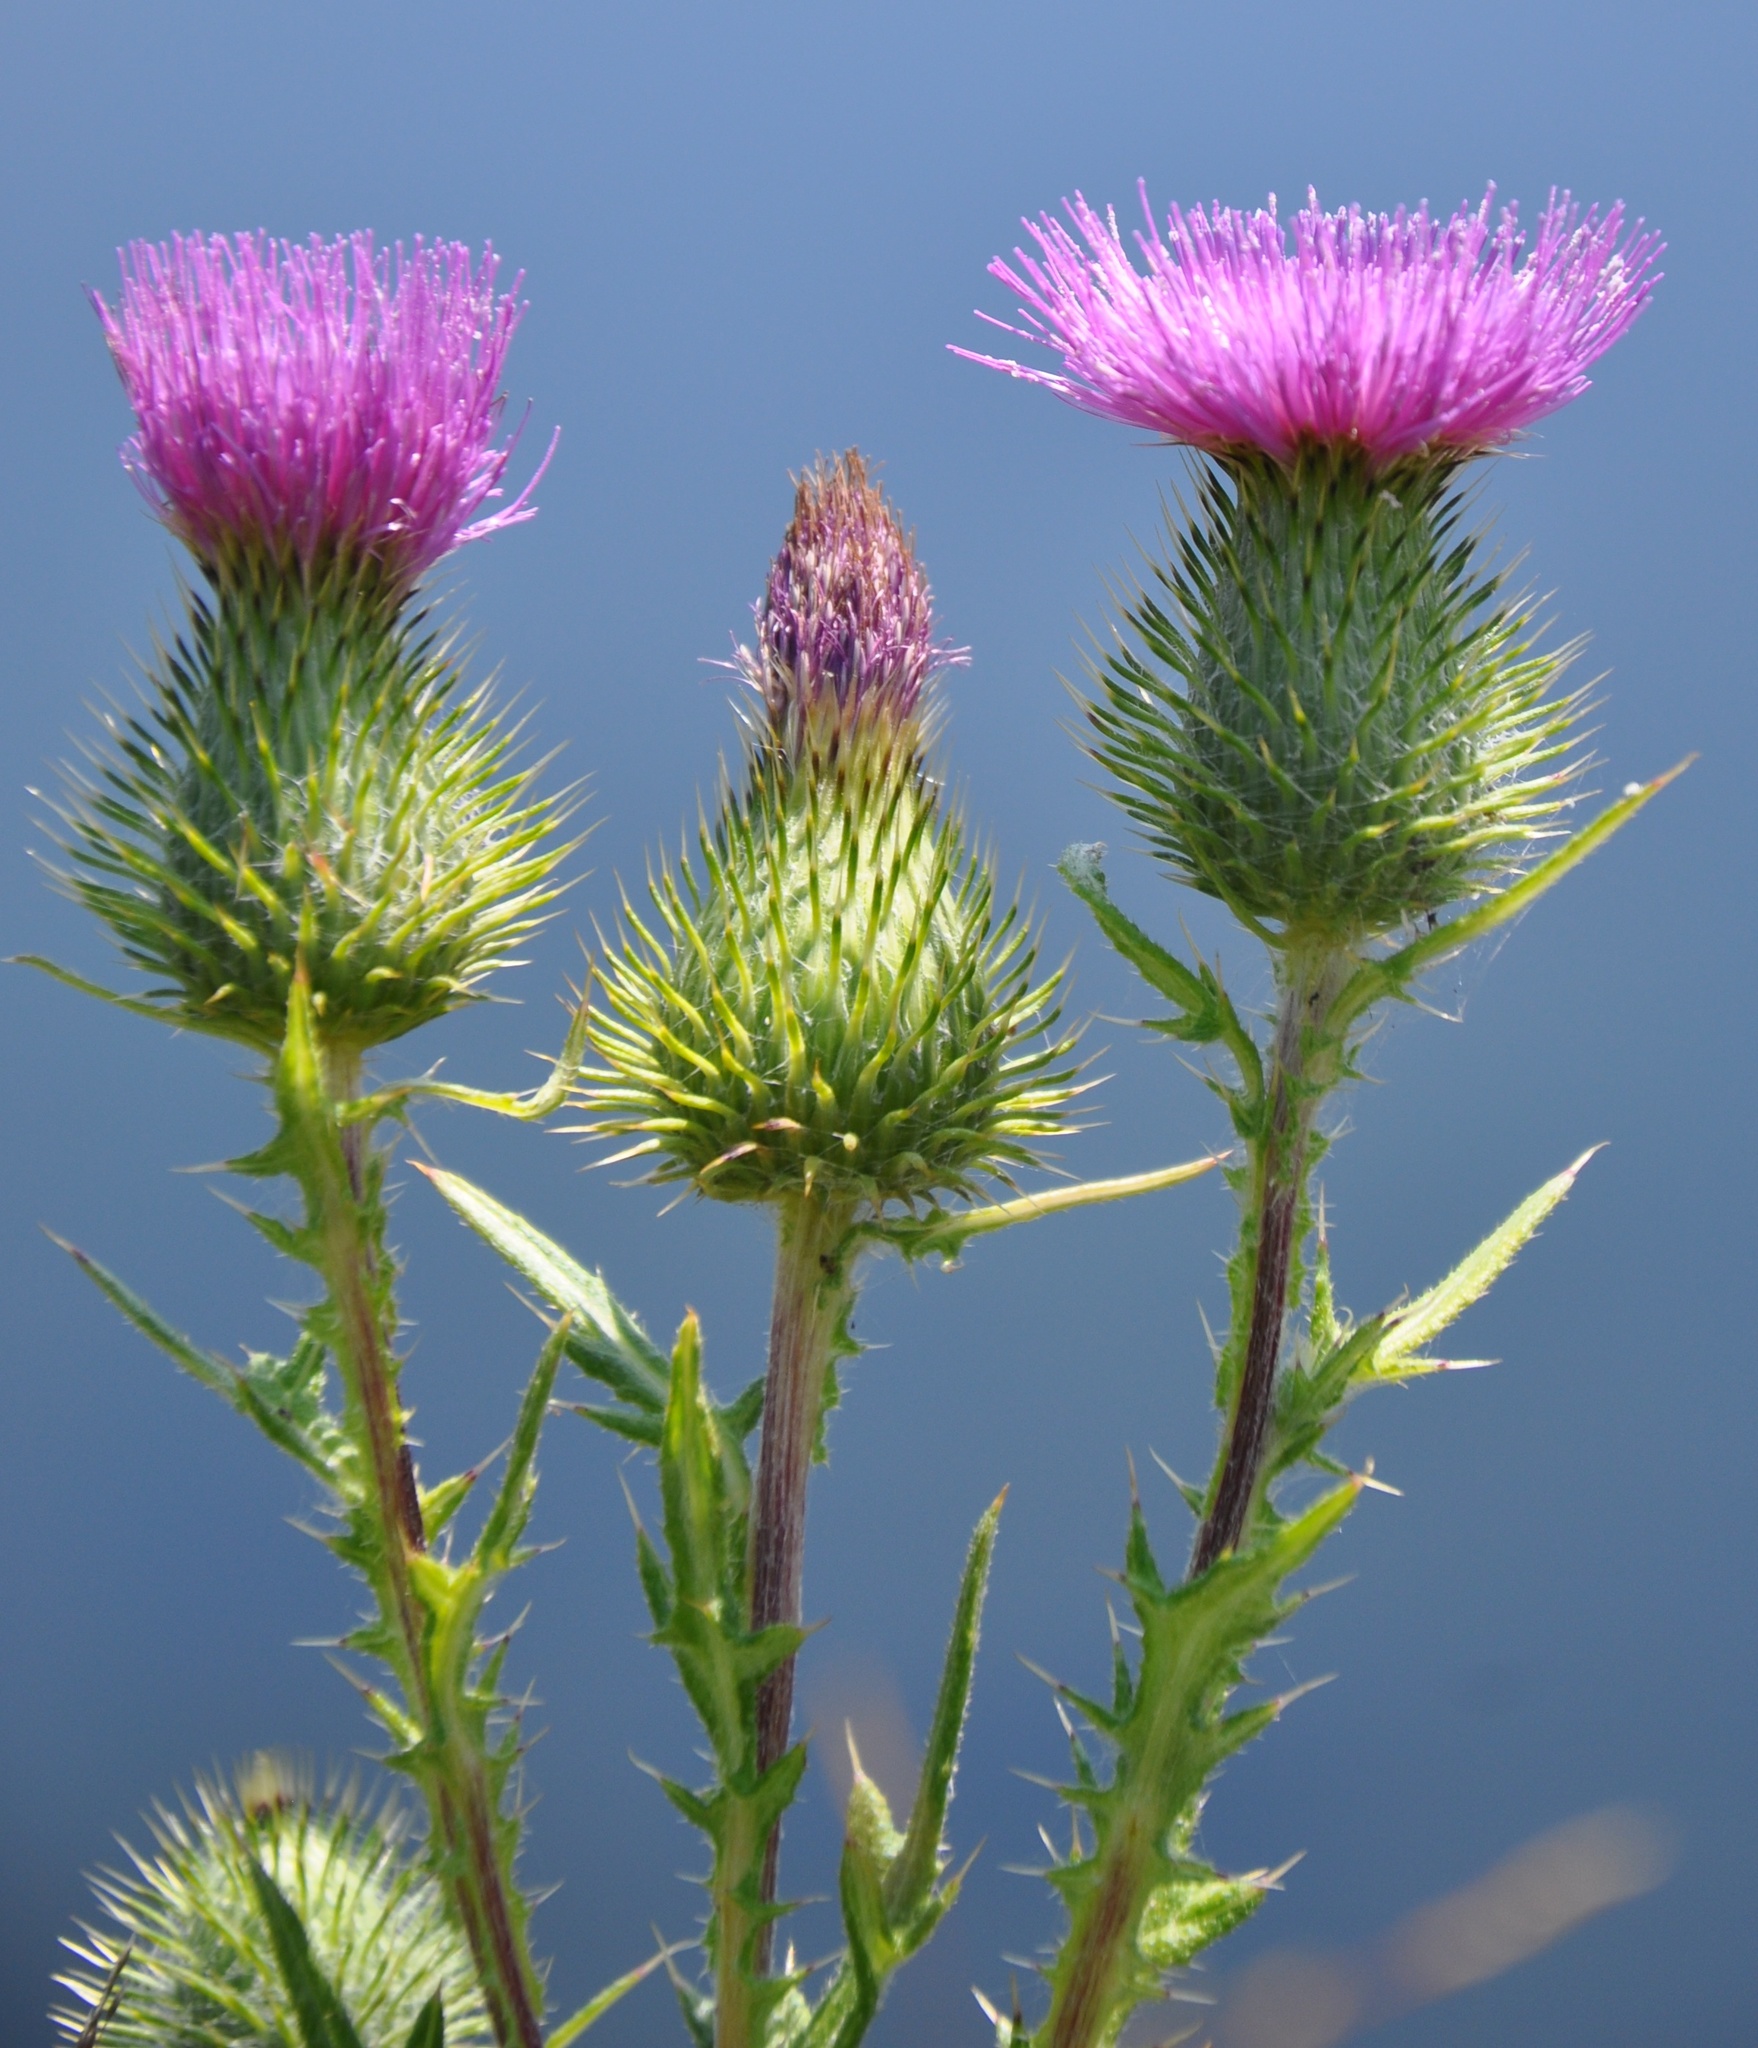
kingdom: Plantae
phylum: Tracheophyta
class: Magnoliopsida
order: Asterales
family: Asteraceae
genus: Cirsium
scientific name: Cirsium vulgare
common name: Bull thistle
